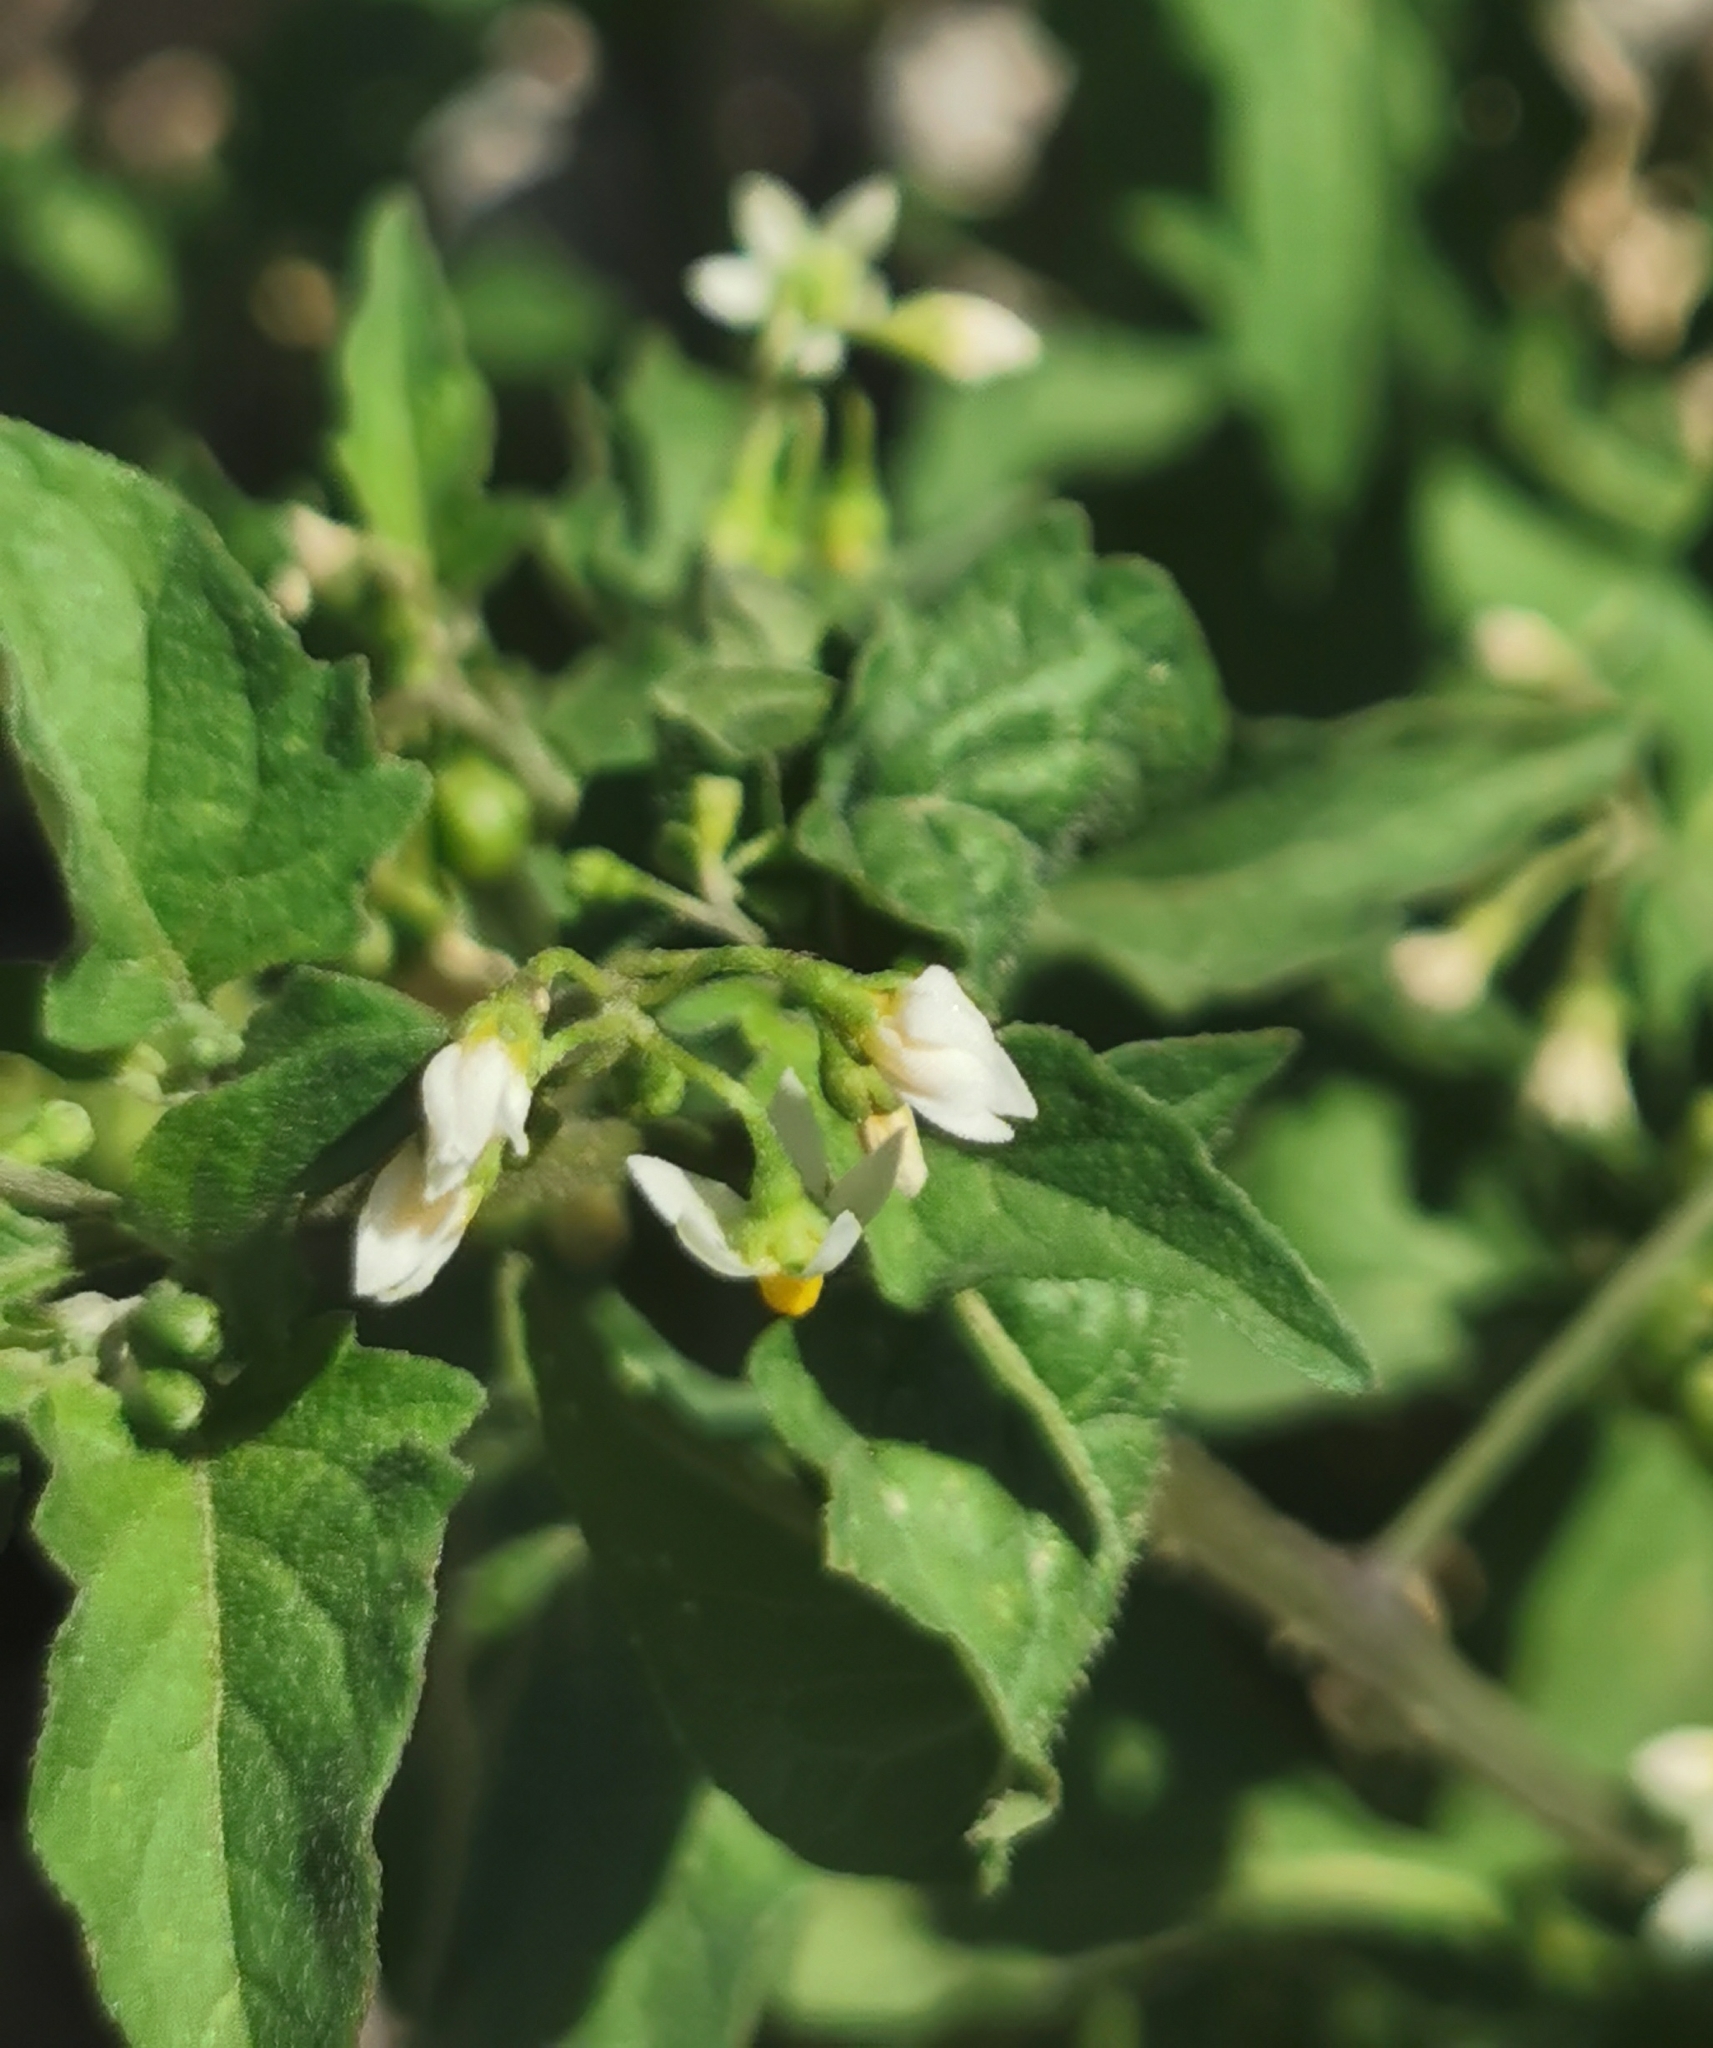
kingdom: Plantae
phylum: Tracheophyta
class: Magnoliopsida
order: Solanales
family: Solanaceae
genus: Solanum
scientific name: Solanum americanum
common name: American black nightshade
